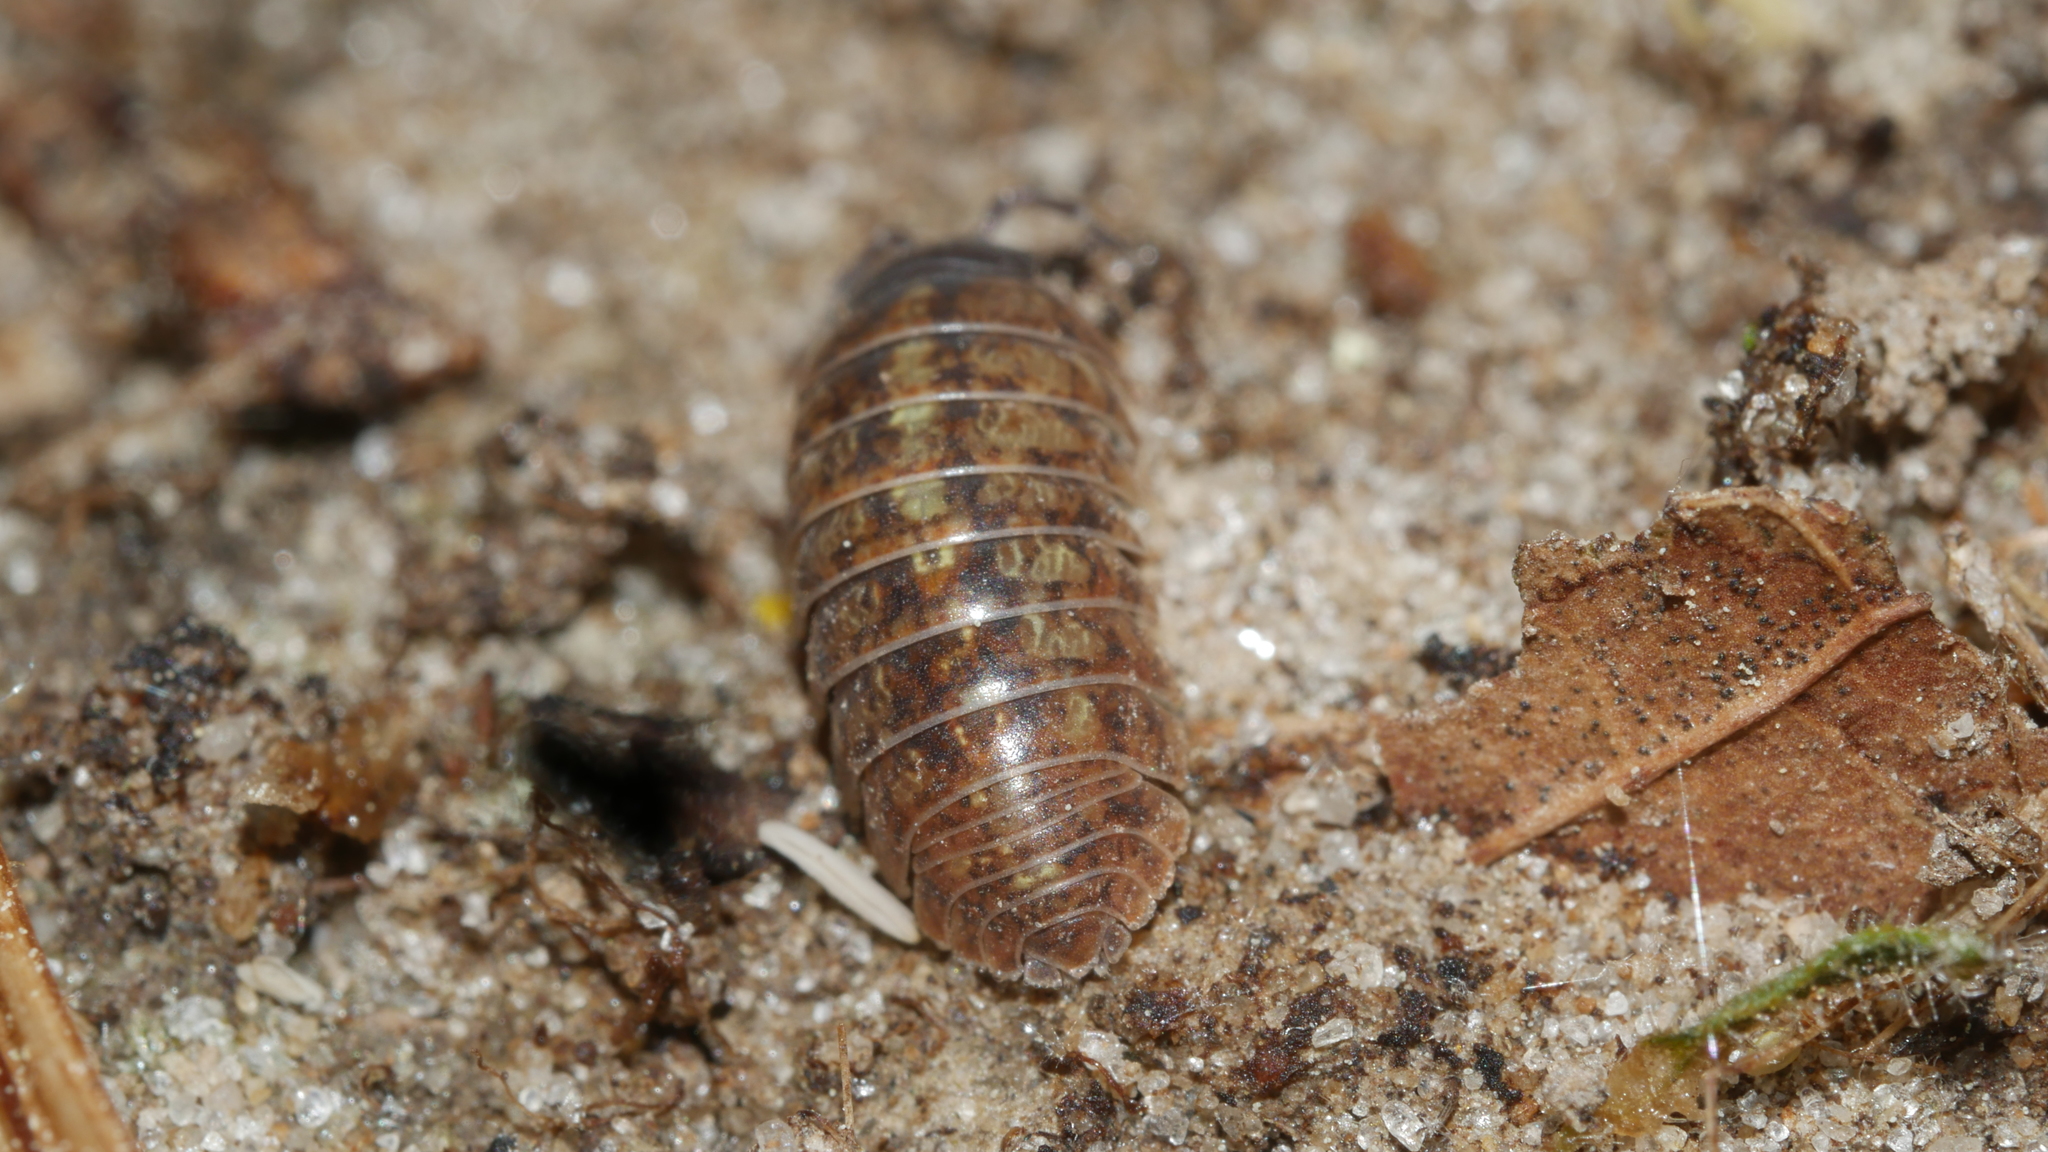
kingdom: Animalia
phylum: Arthropoda
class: Malacostraca
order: Isopoda
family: Armadillidiidae
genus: Armadillidium
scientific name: Armadillidium vulgare
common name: Common pill woodlouse
